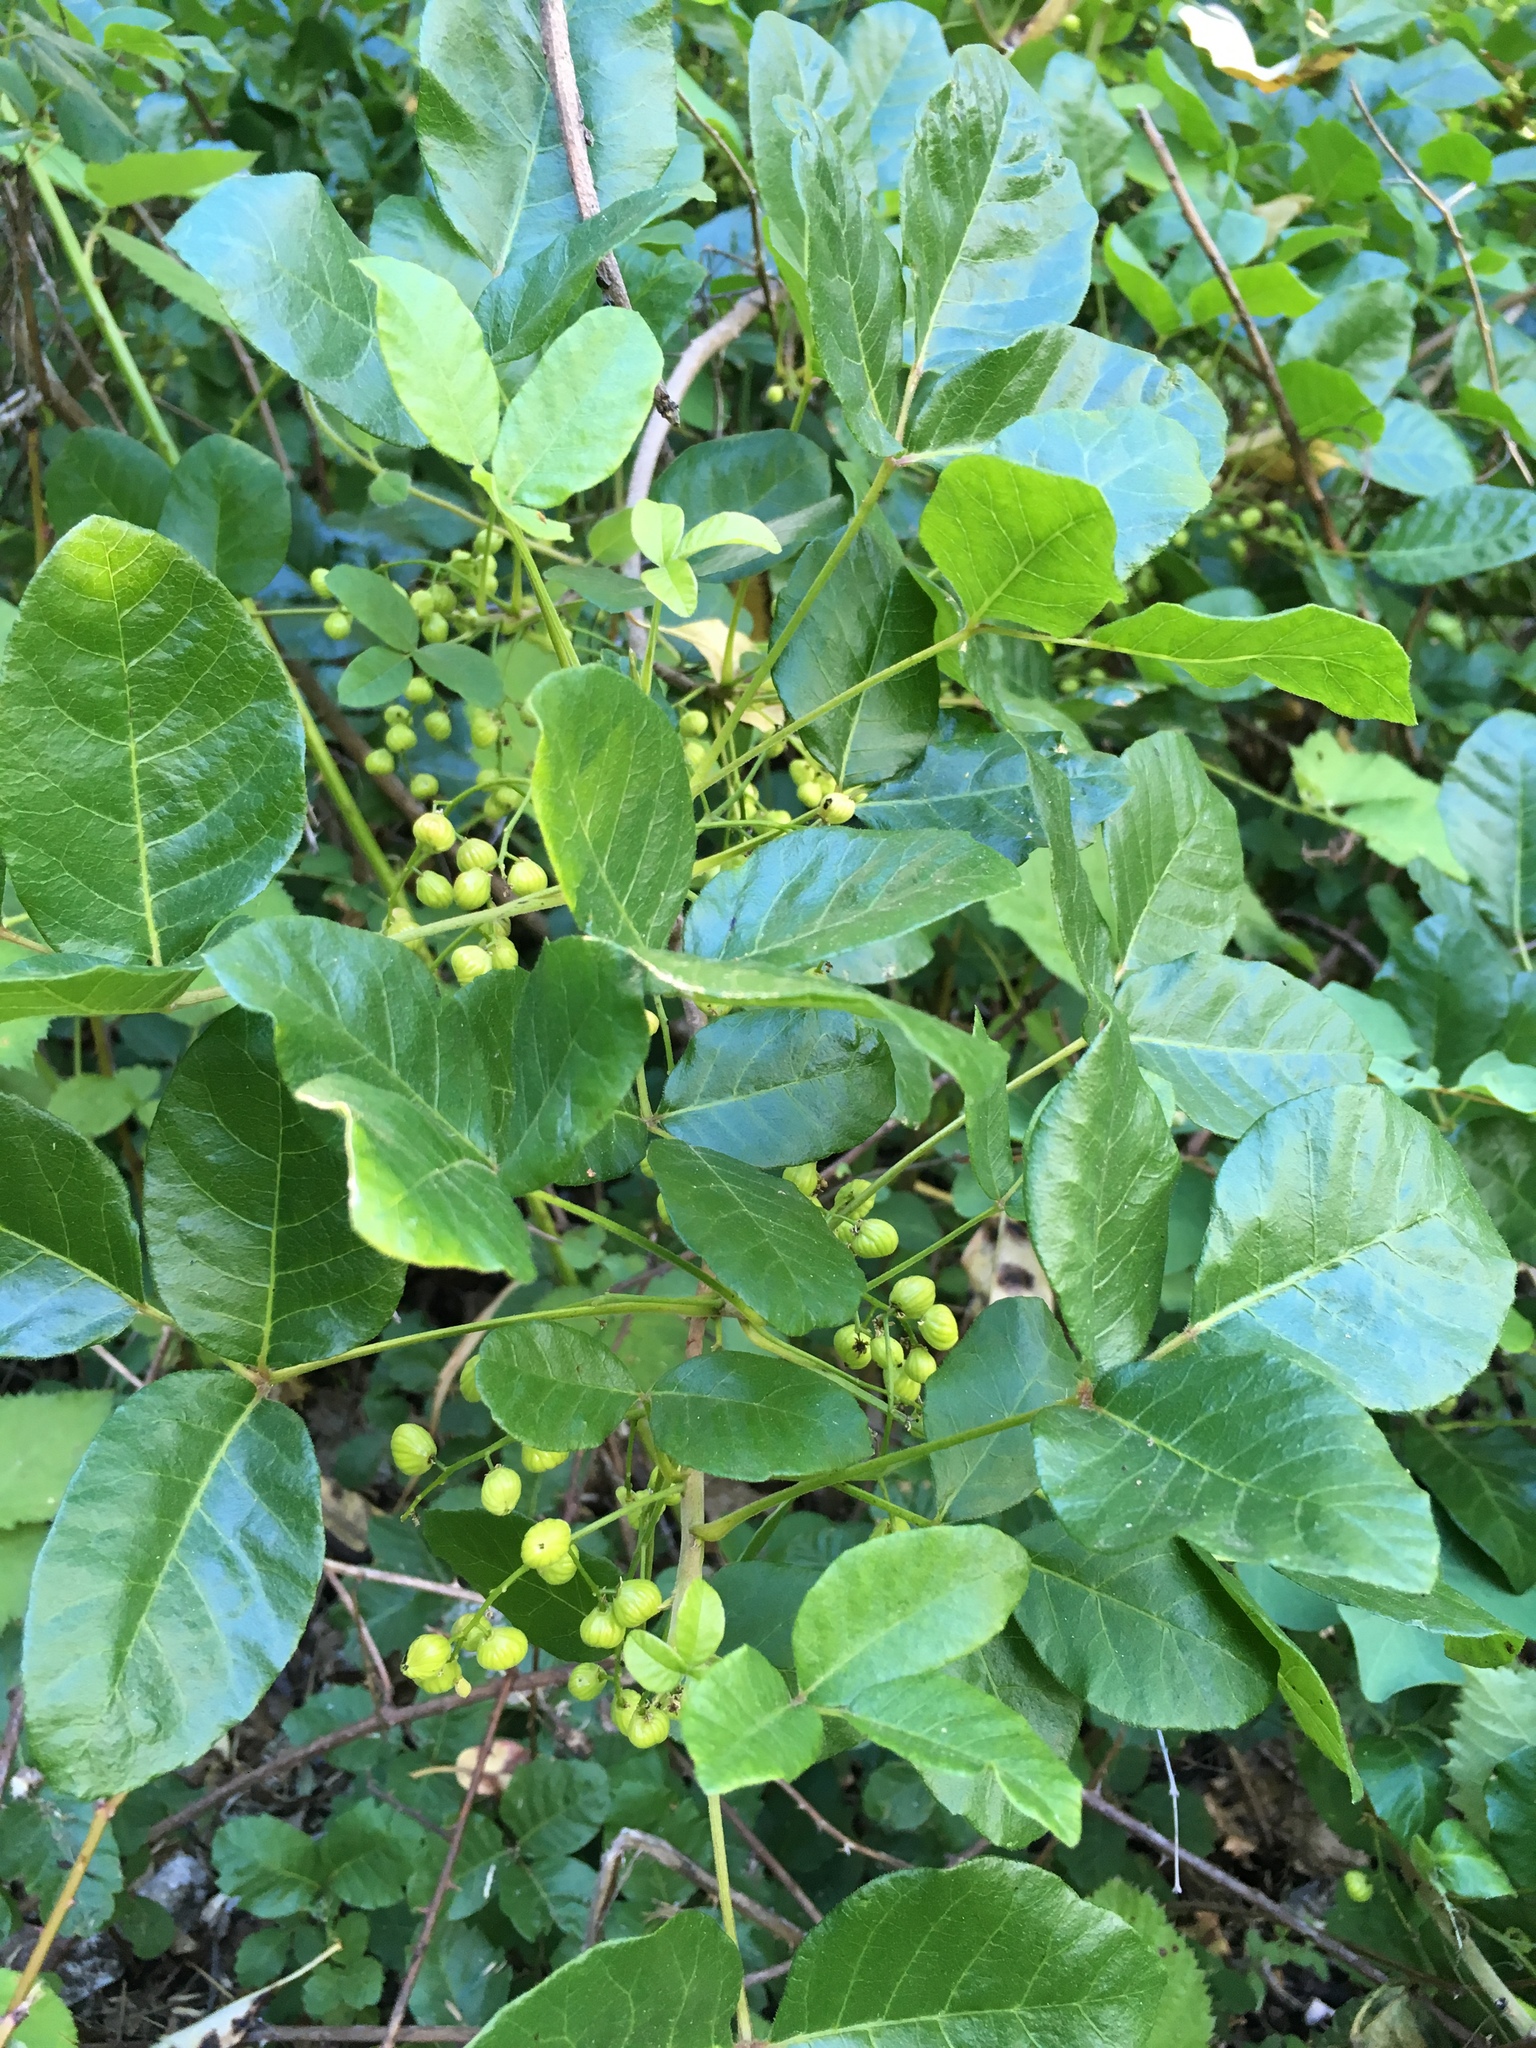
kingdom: Plantae
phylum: Tracheophyta
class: Magnoliopsida
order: Sapindales
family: Anacardiaceae
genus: Toxicodendron
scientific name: Toxicodendron diversilobum
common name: Pacific poison-oak
